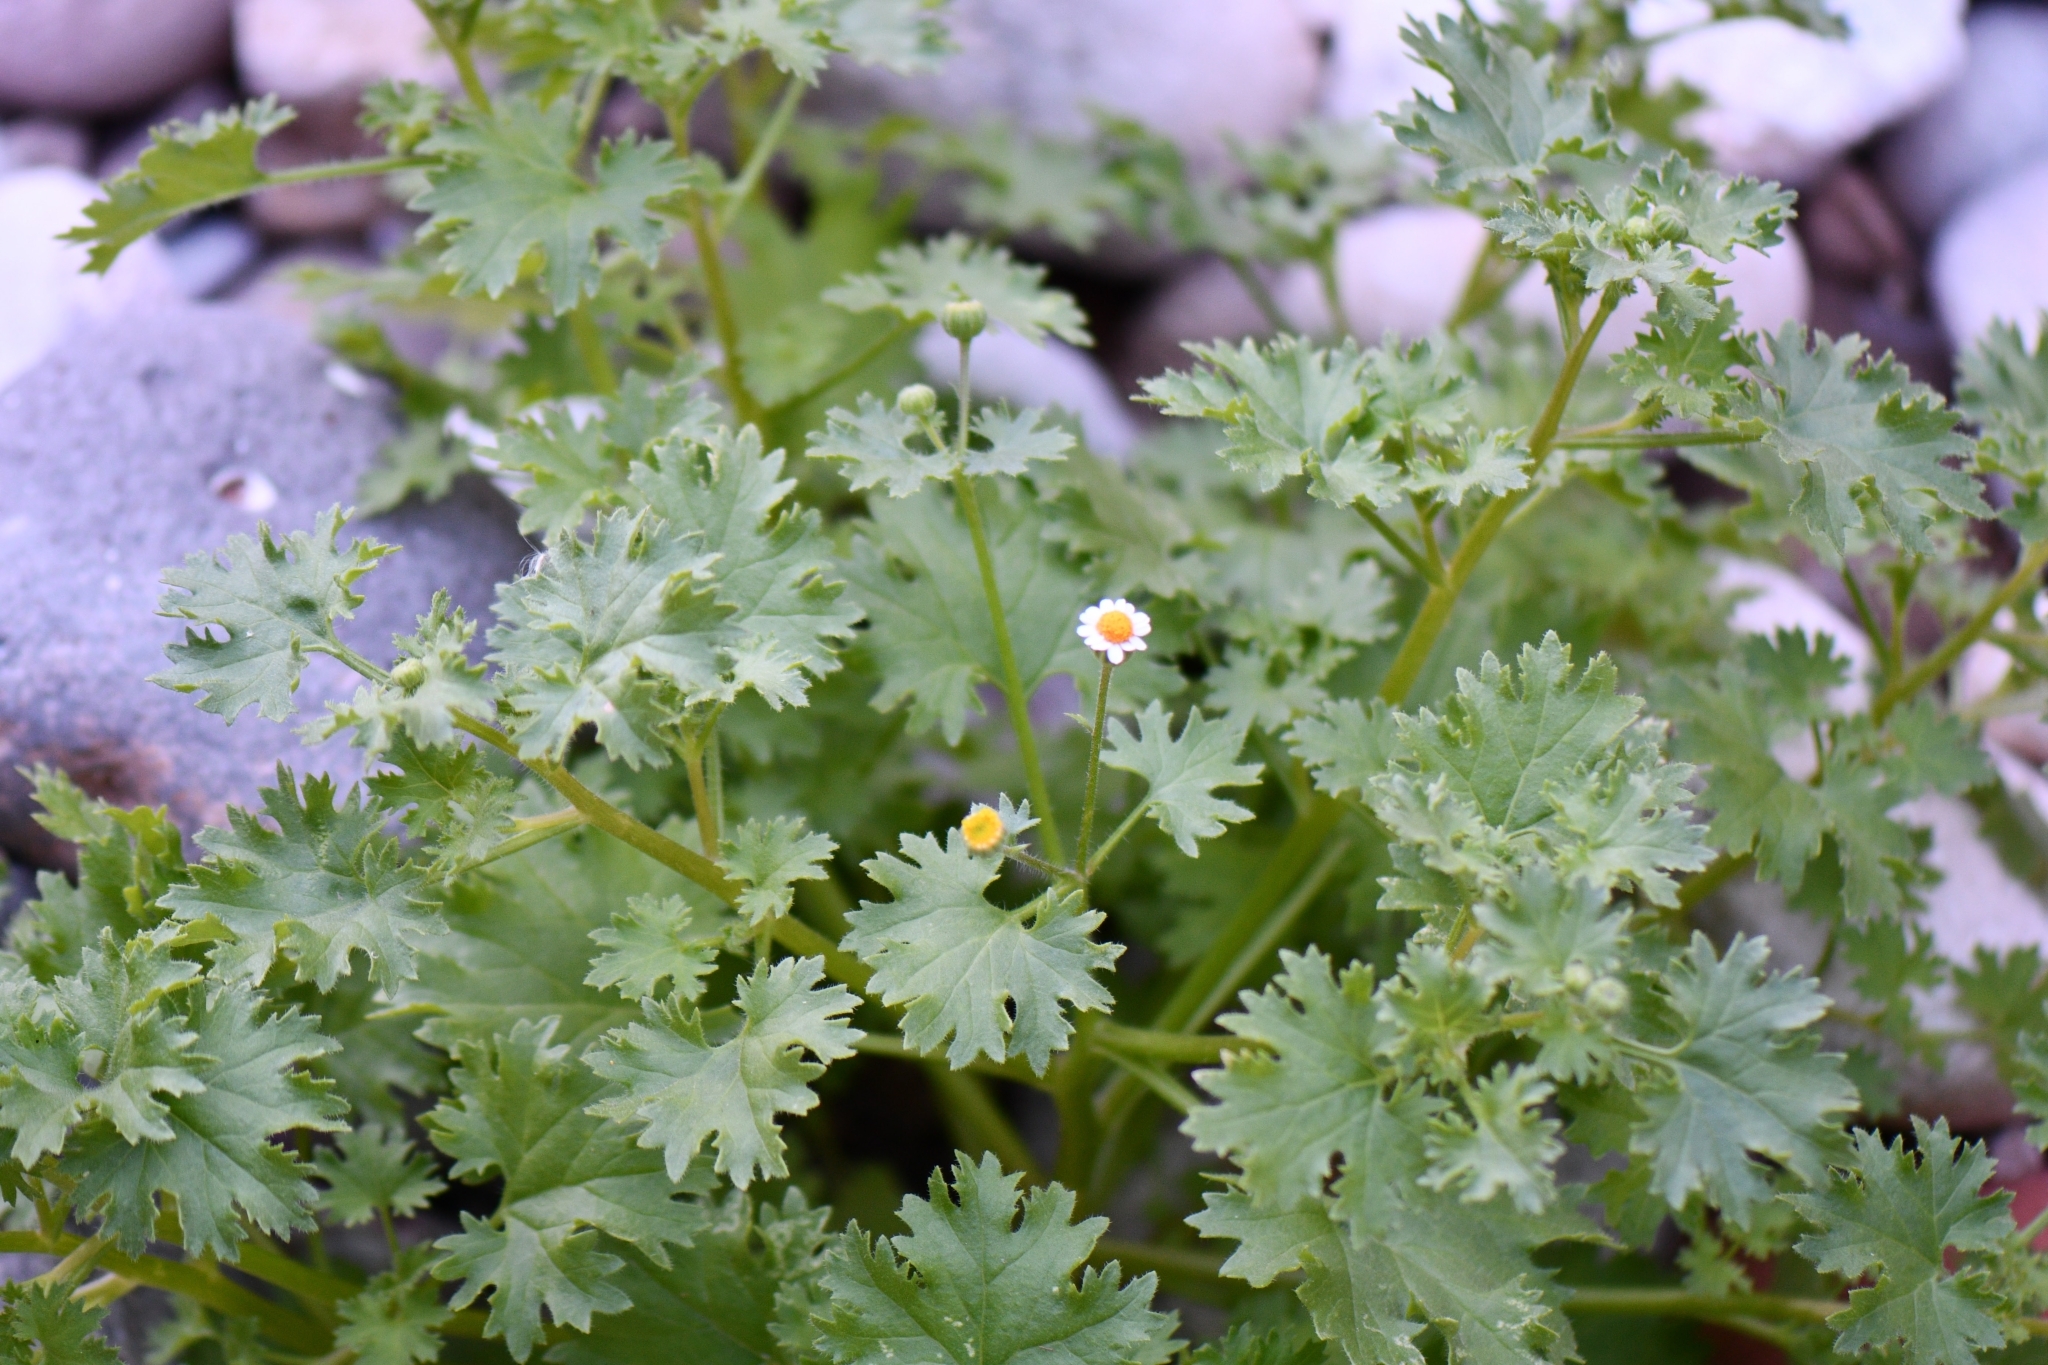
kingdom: Plantae
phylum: Tracheophyta
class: Magnoliopsida
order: Asterales
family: Asteraceae
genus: Laphamia
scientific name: Laphamia emoryi
